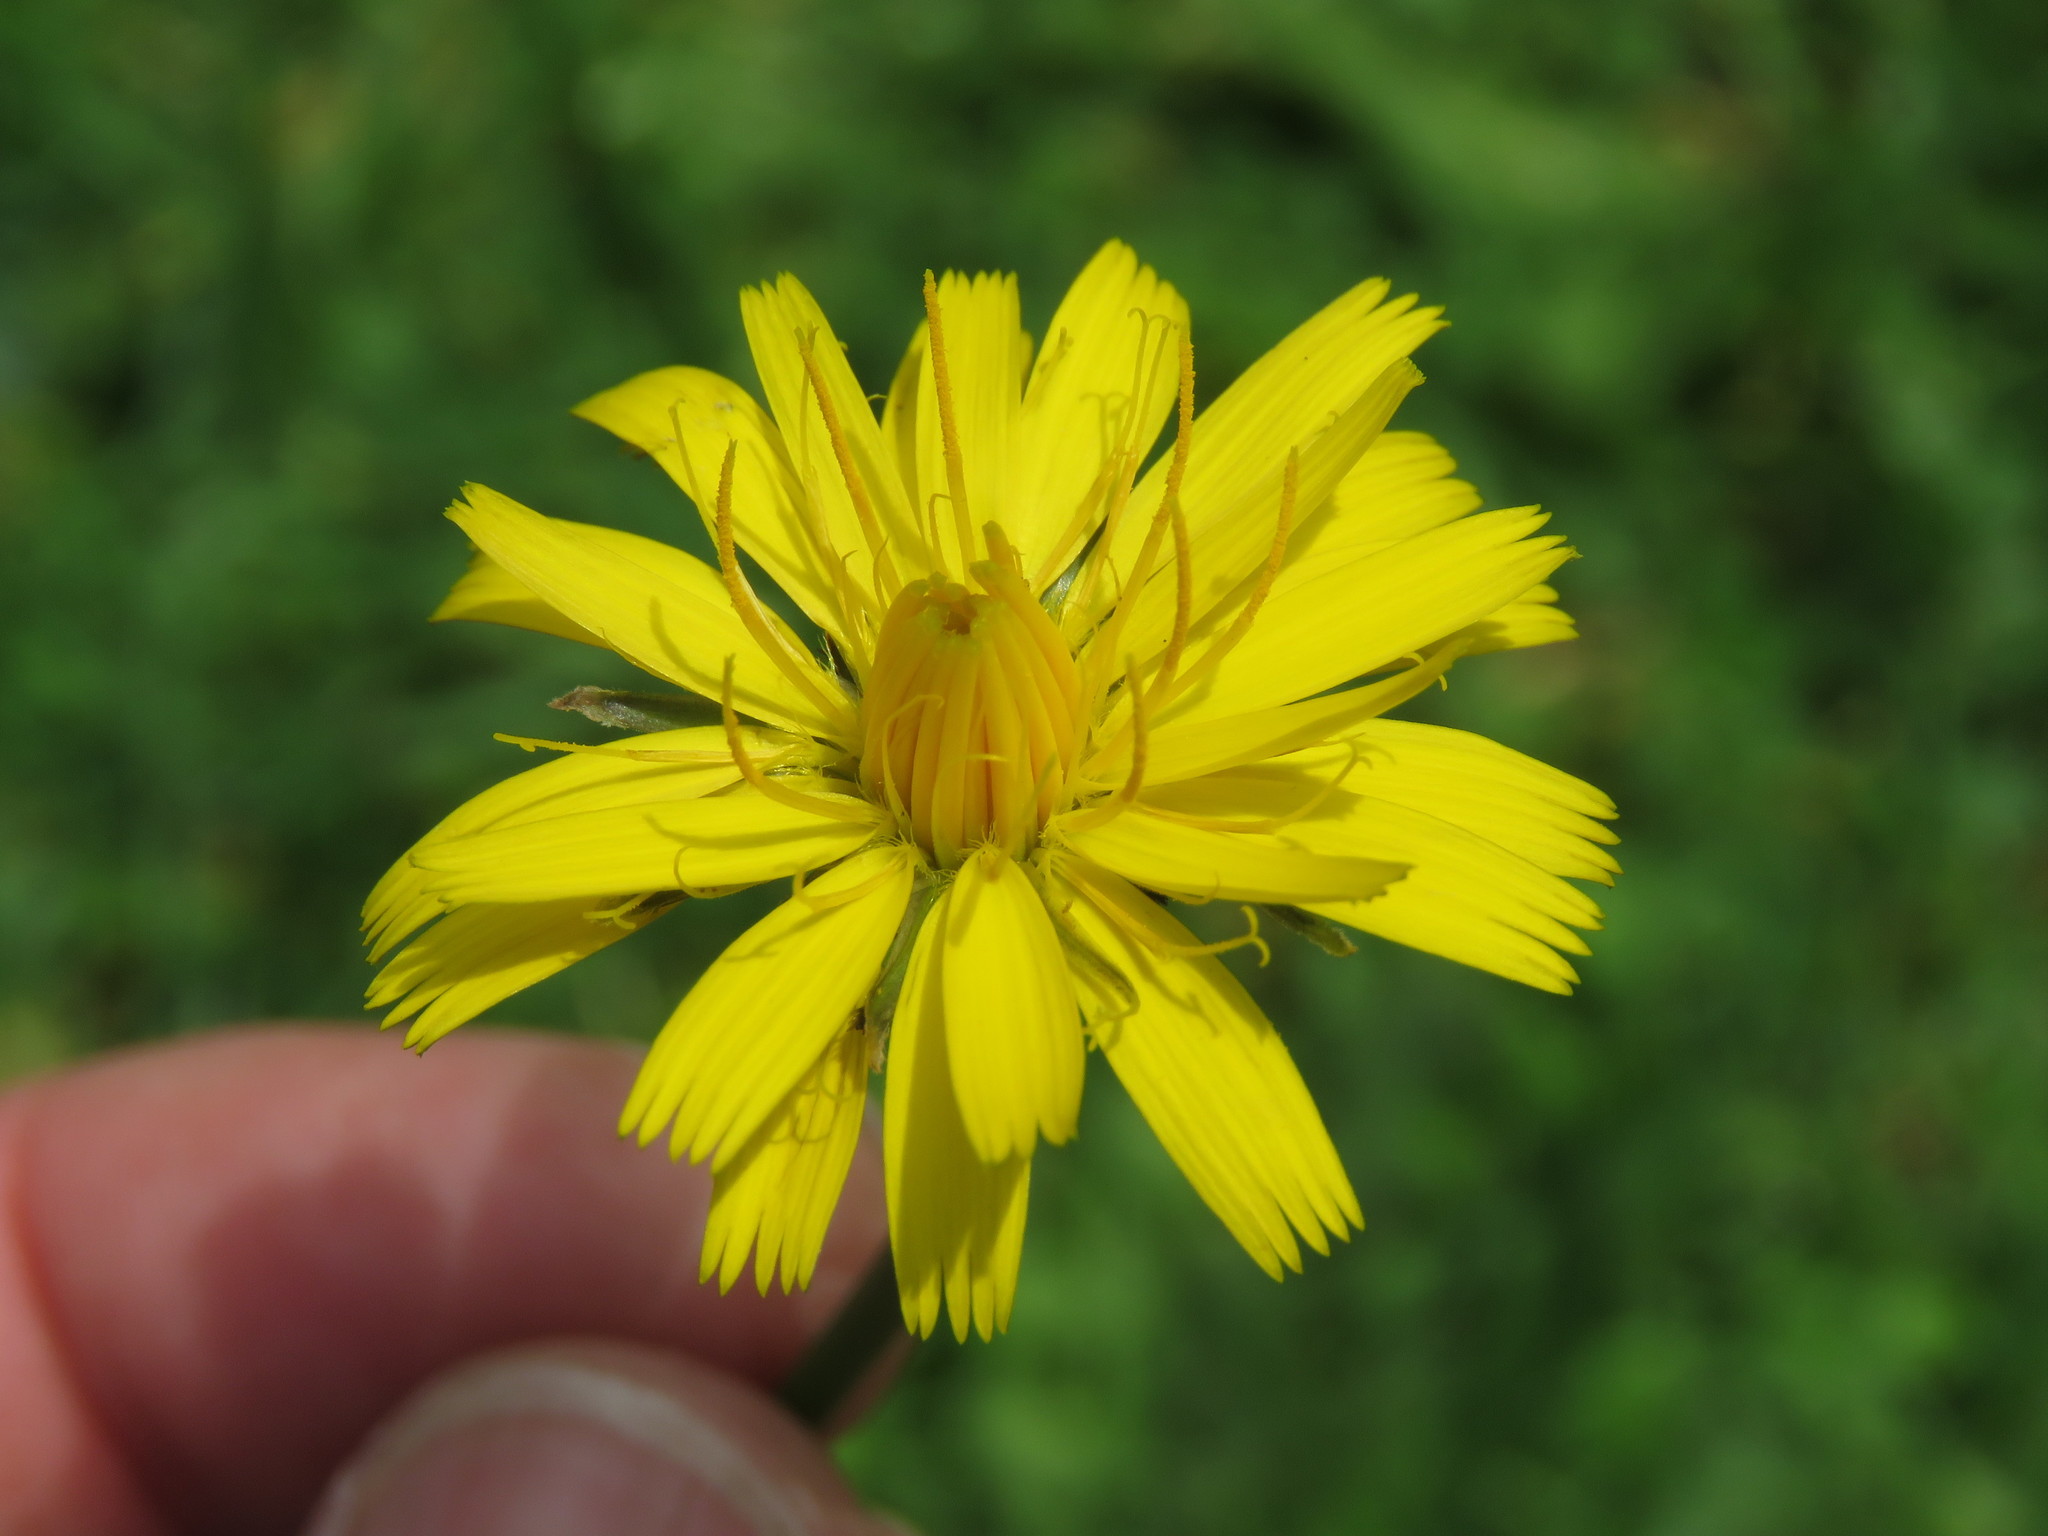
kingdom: Plantae
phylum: Tracheophyta
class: Magnoliopsida
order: Asterales
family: Asteraceae
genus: Hypochaeris
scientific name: Hypochaeris radicata
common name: Flatweed
